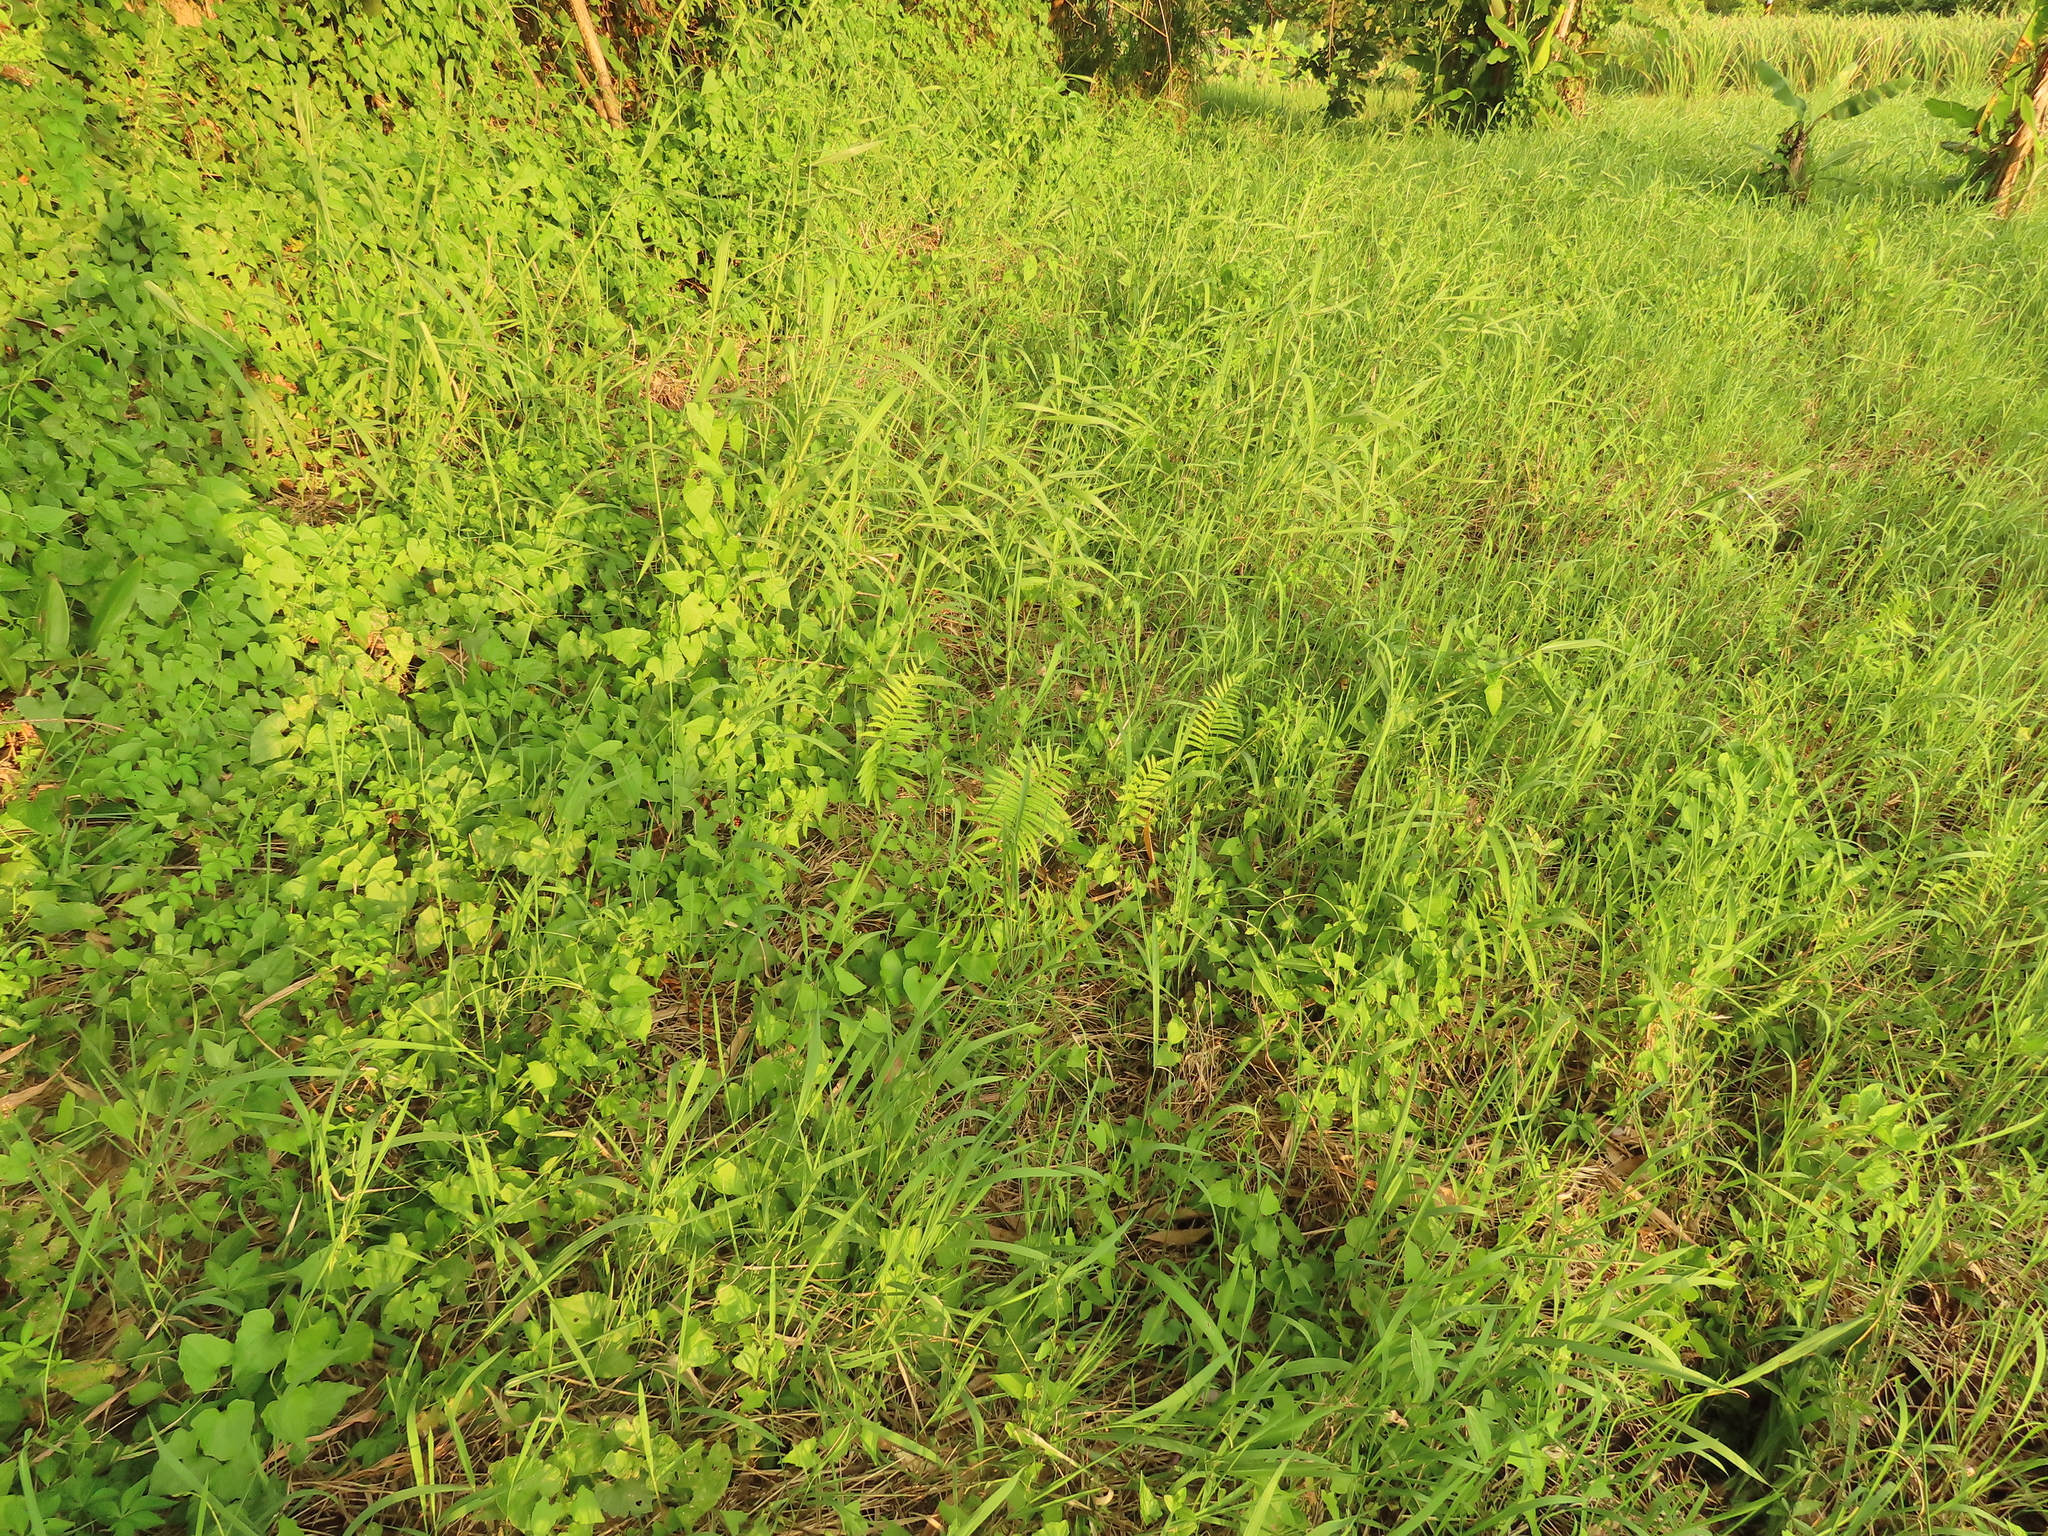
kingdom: Plantae
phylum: Tracheophyta
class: Polypodiopsida
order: Polypodiales
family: Thelypteridaceae
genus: Cyclosorus
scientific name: Cyclosorus interruptus
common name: Neke fern
